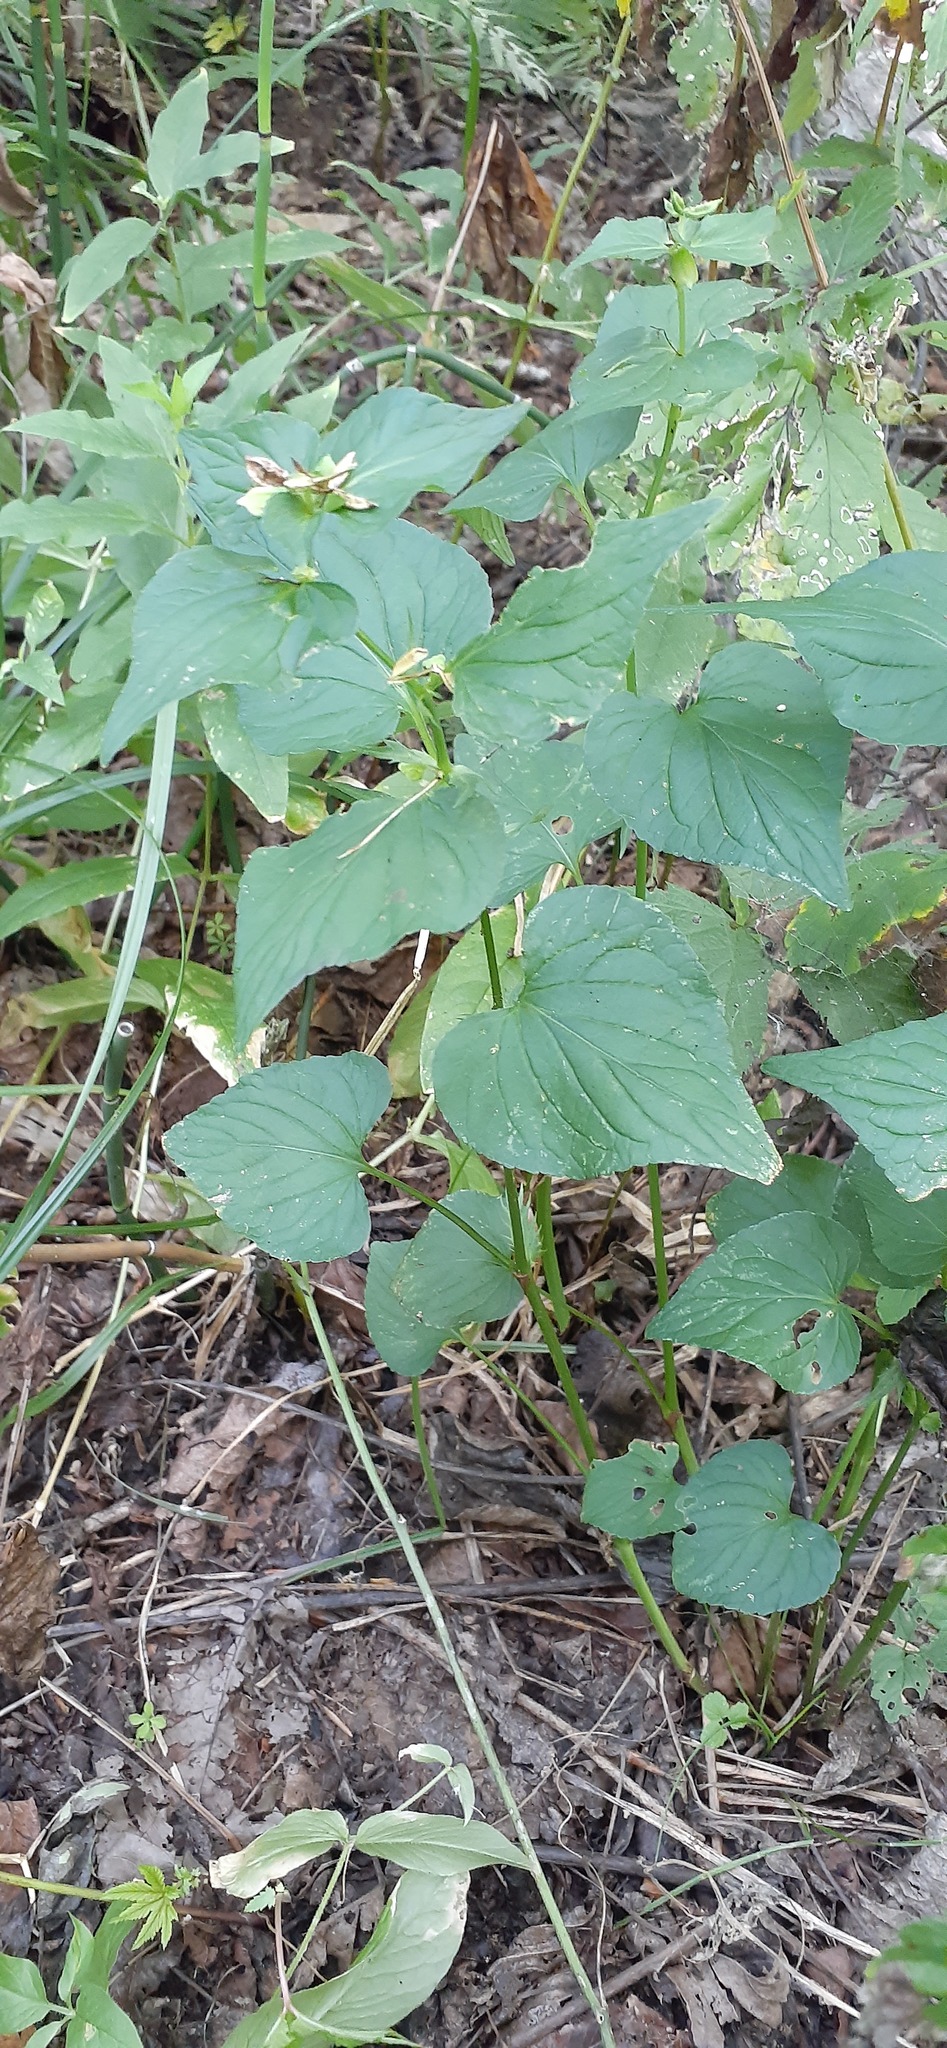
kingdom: Plantae
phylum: Tracheophyta
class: Magnoliopsida
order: Malpighiales
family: Violaceae
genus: Viola
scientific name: Viola acuminata
